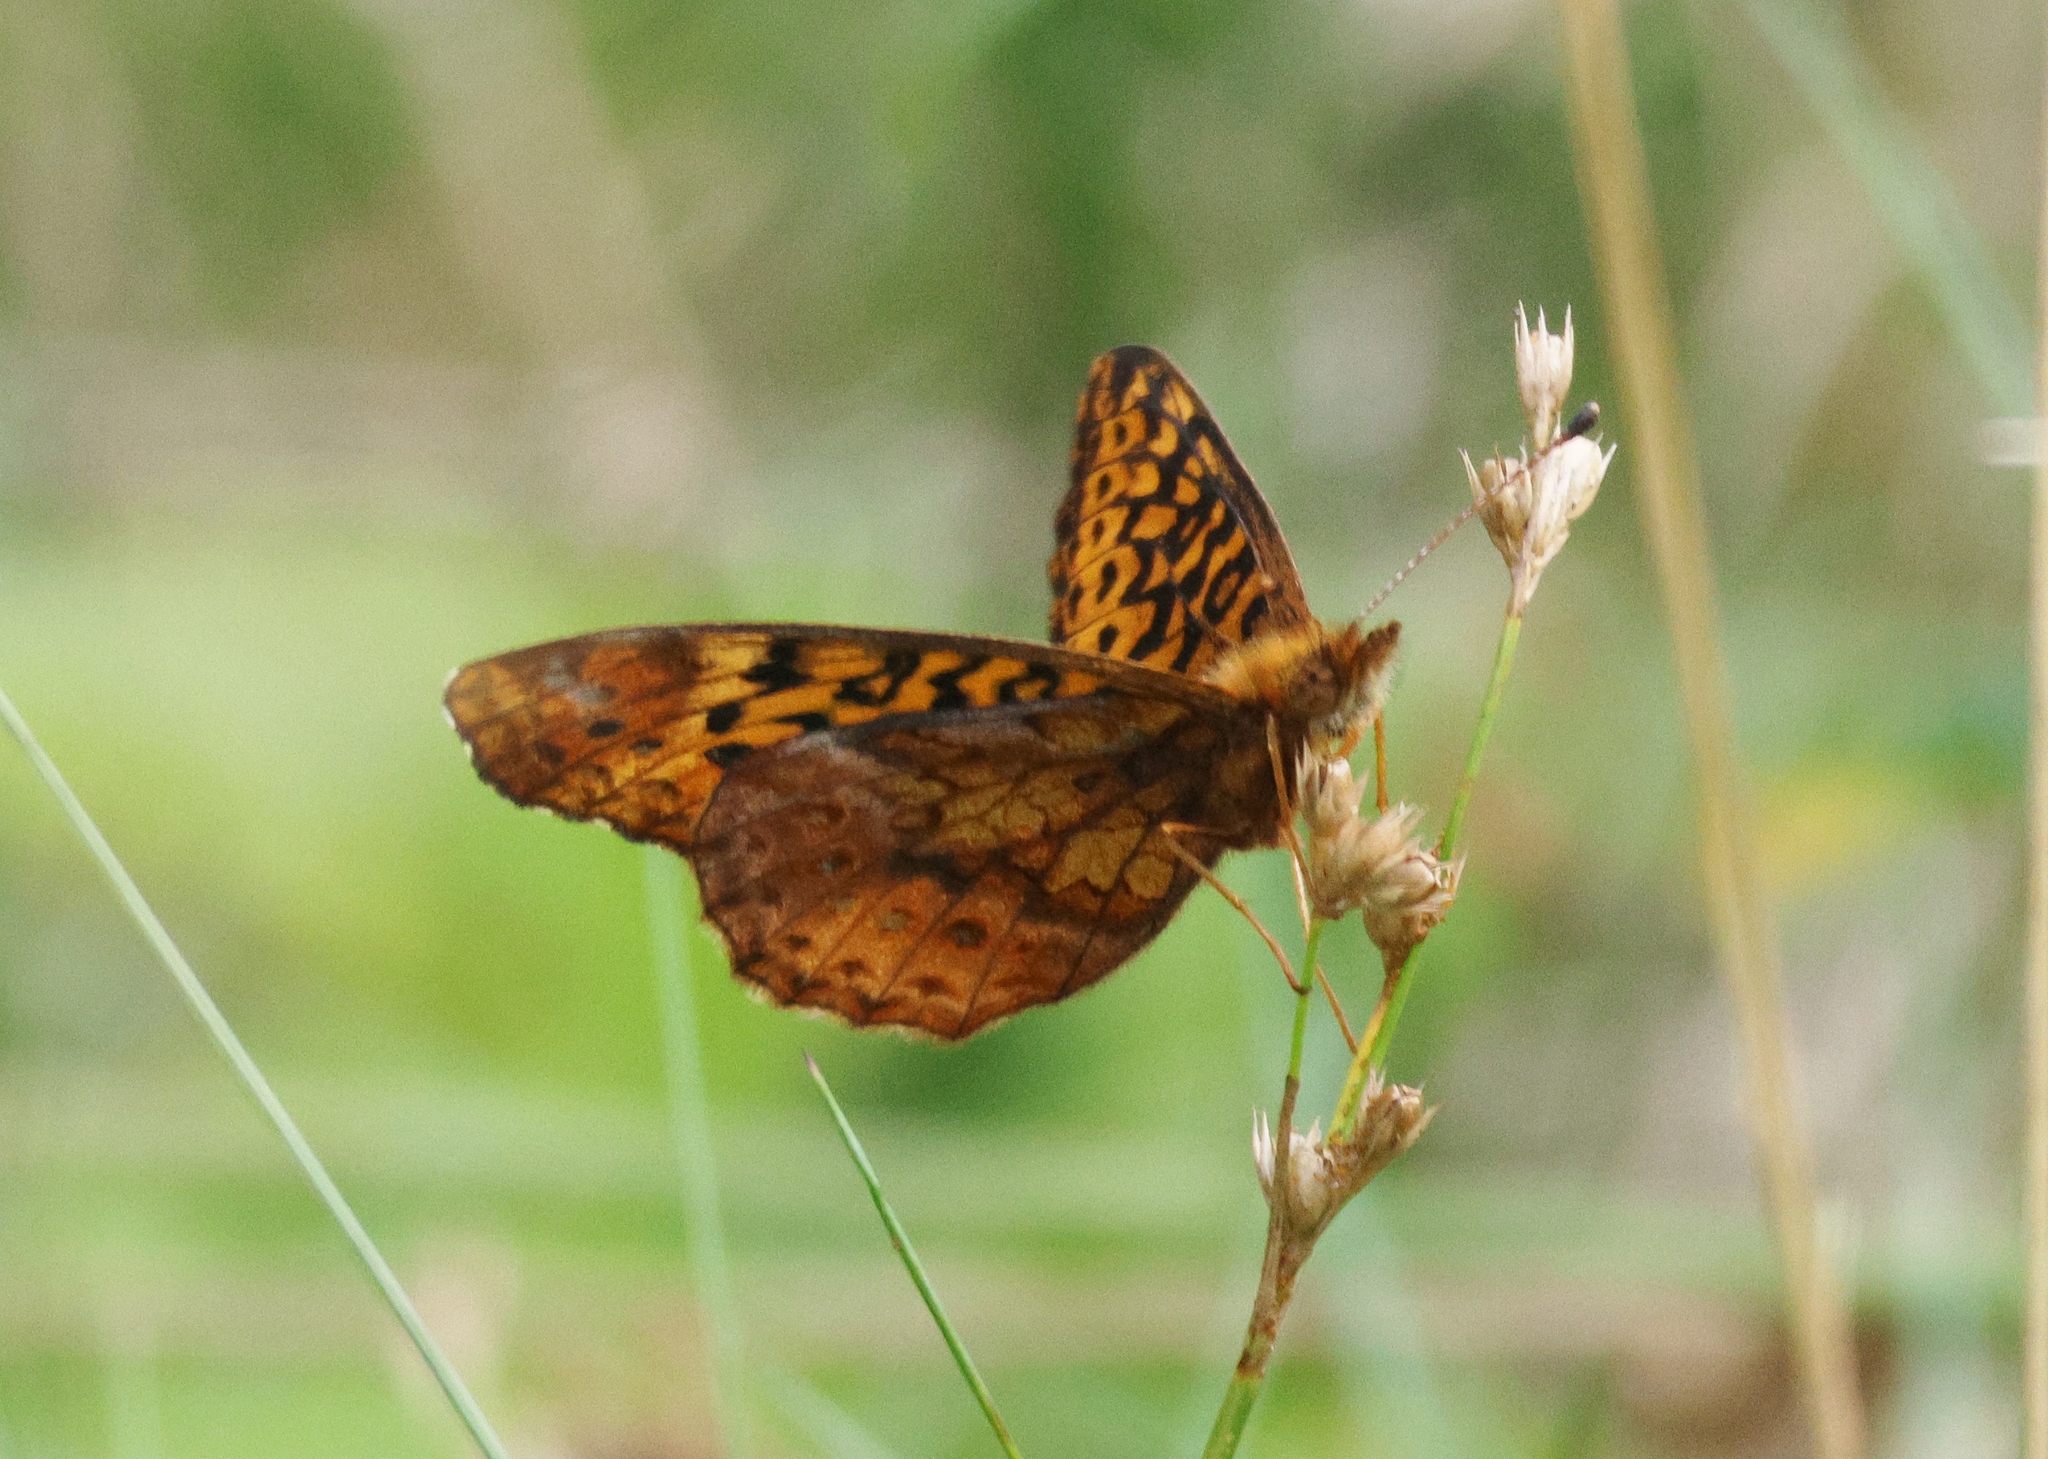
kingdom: Animalia
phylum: Arthropoda
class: Insecta
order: Lepidoptera
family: Nymphalidae
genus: Clossiana
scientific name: Clossiana toddi
